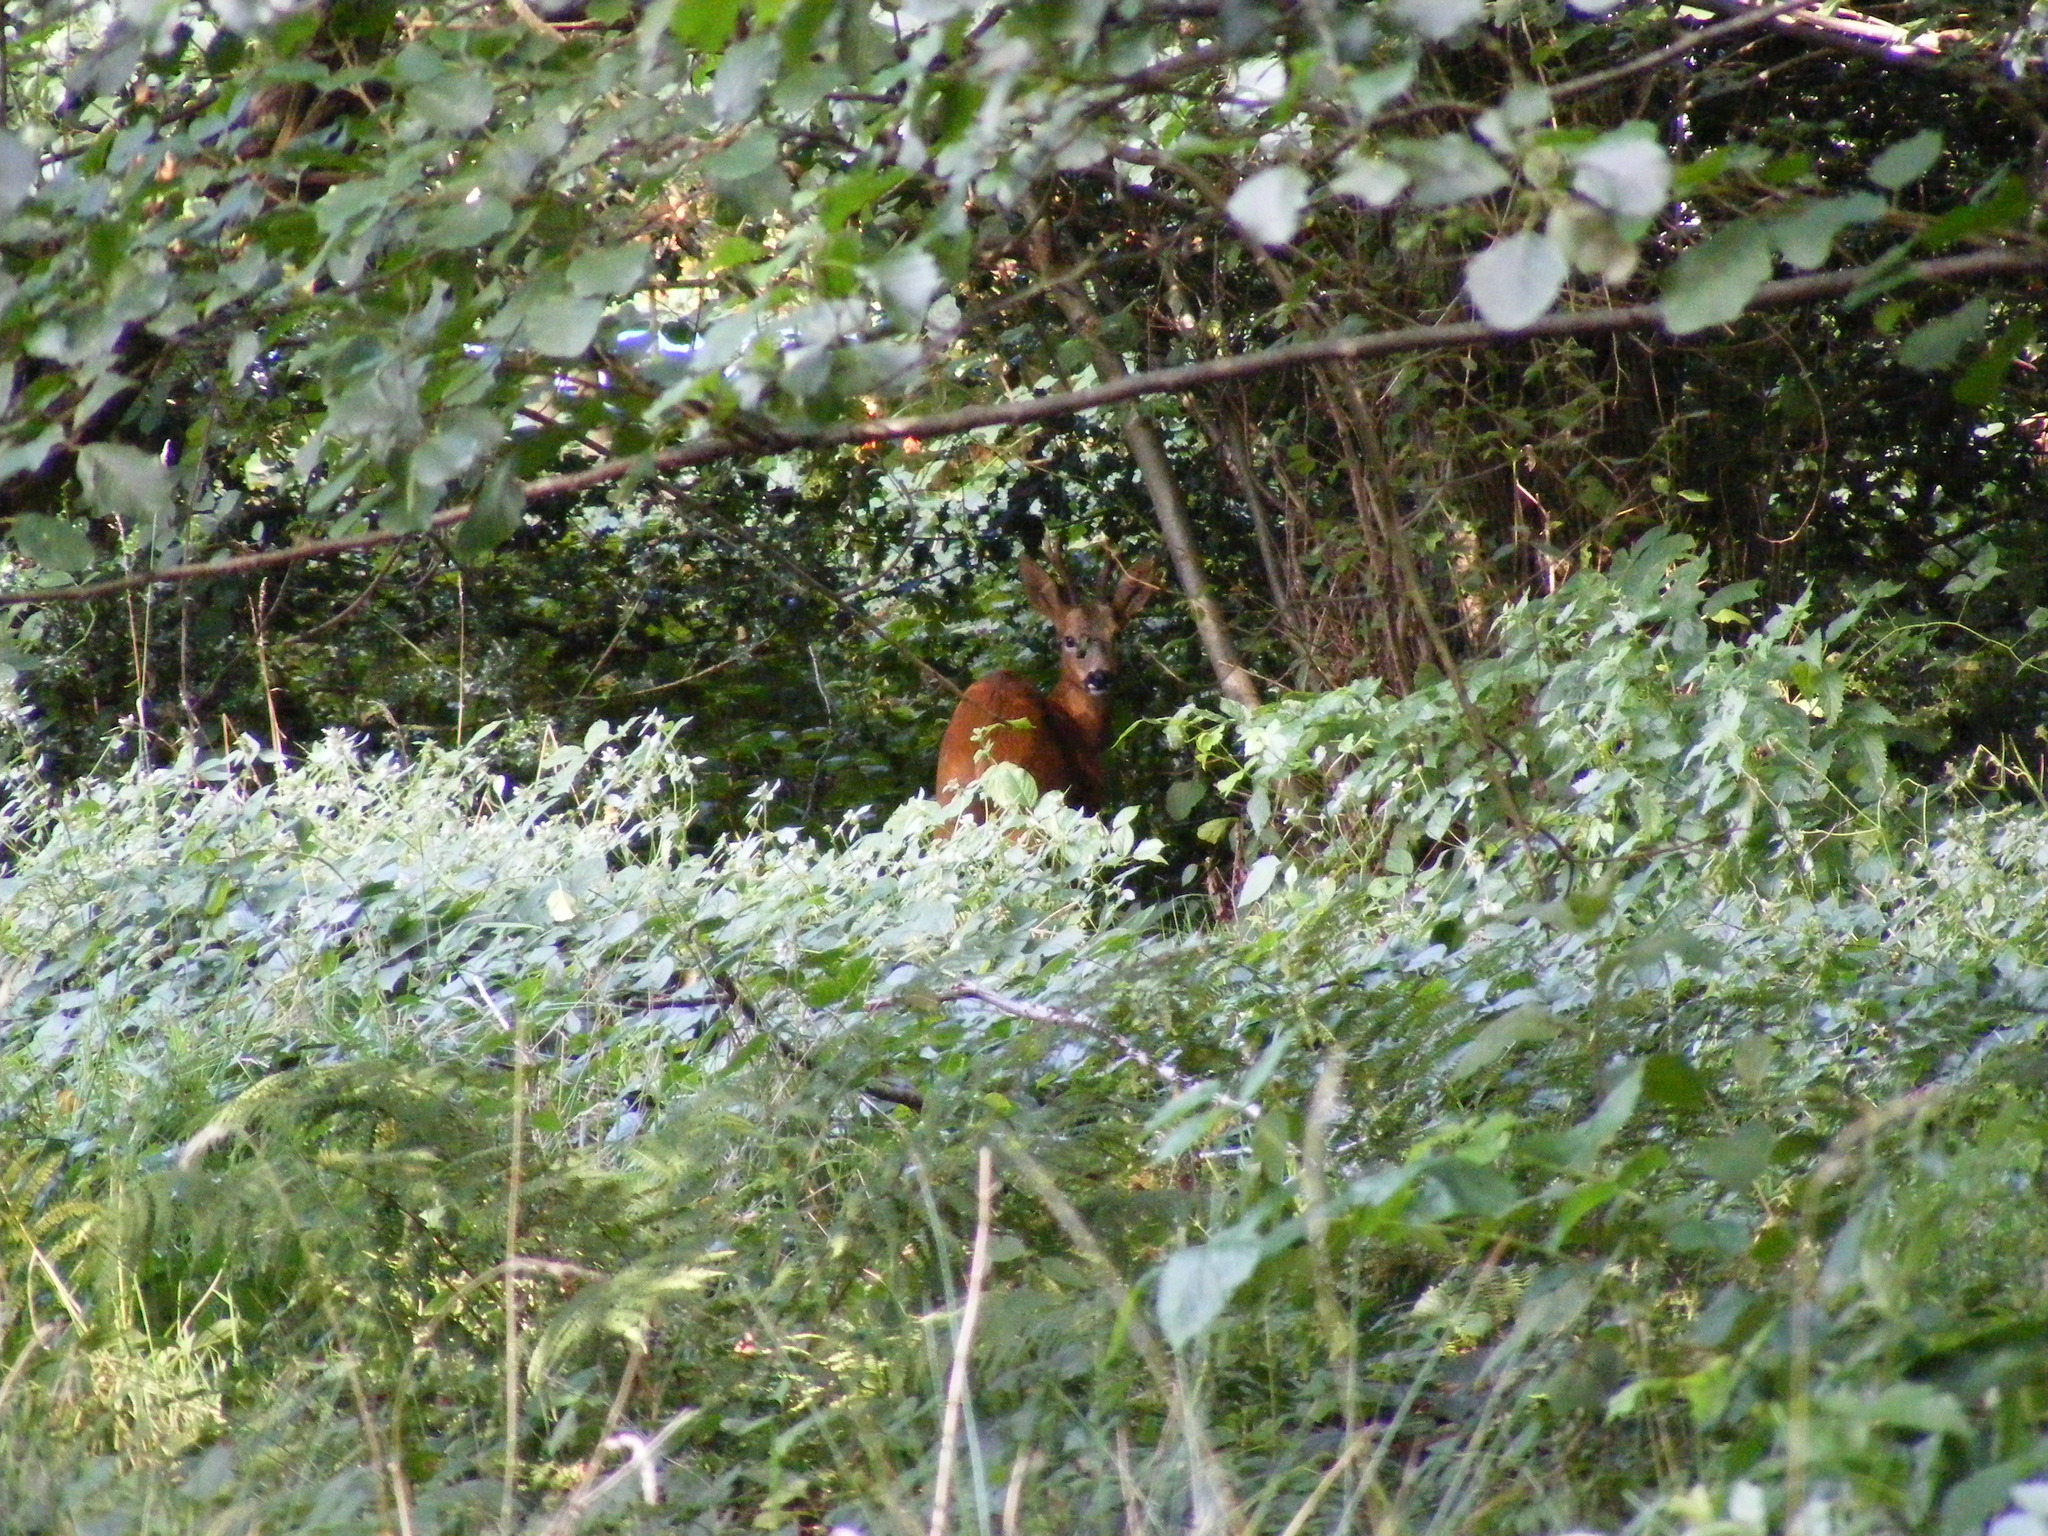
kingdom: Animalia
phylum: Chordata
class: Mammalia
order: Artiodactyla
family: Cervidae
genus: Capreolus
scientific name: Capreolus capreolus
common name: Western roe deer
